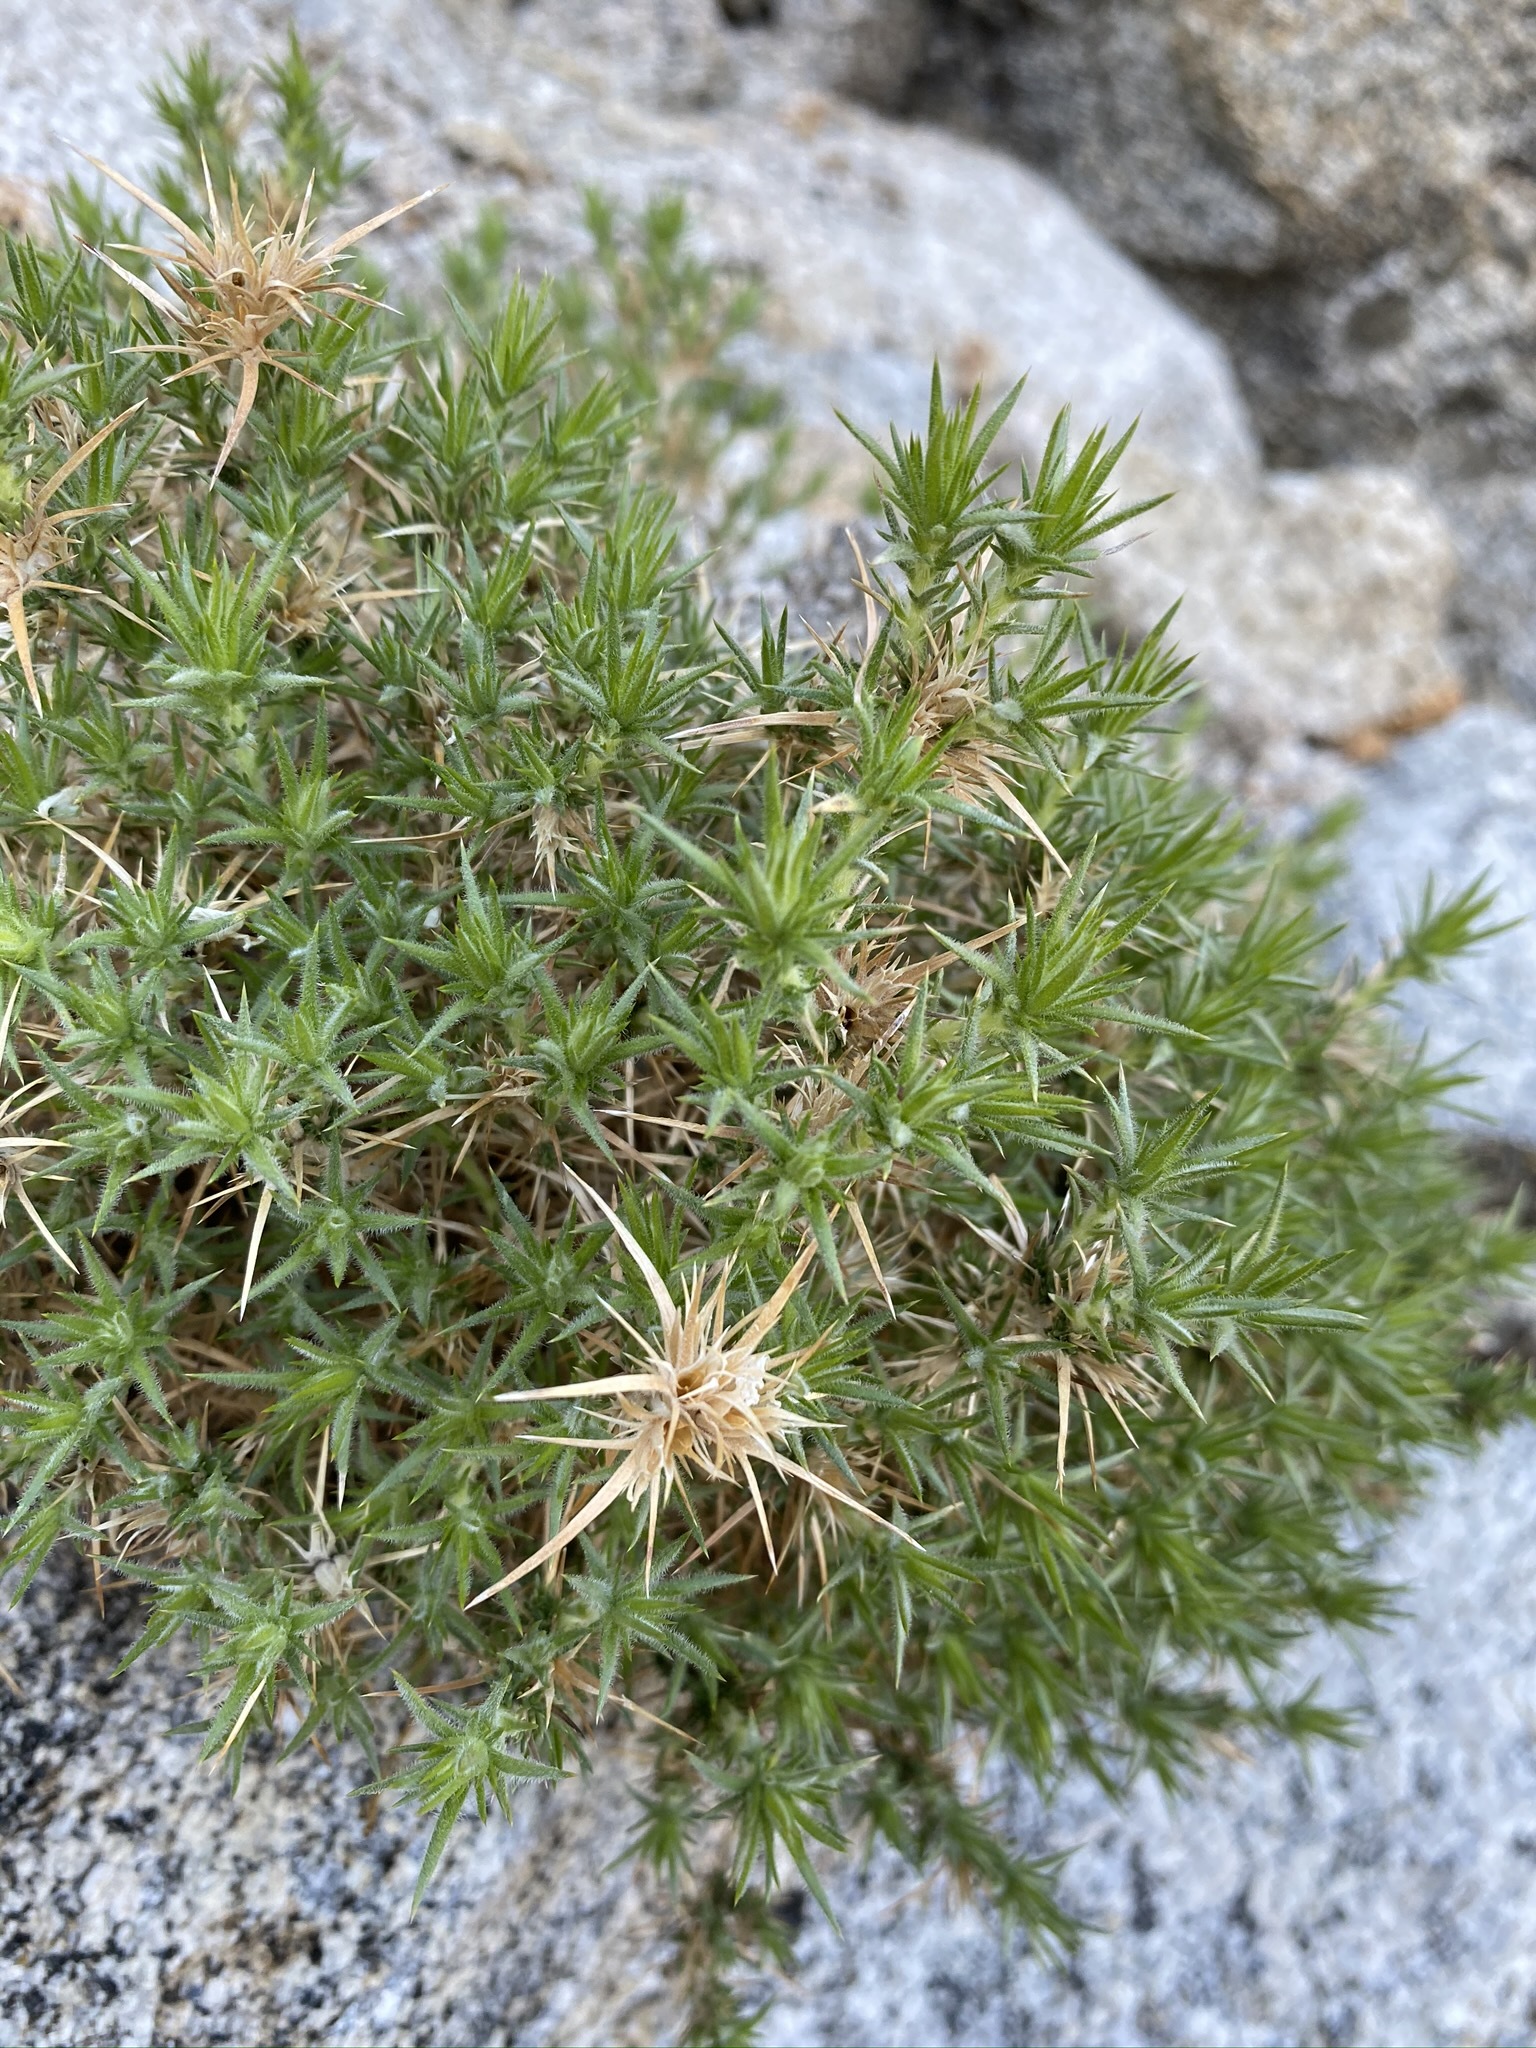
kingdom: Plantae
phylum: Tracheophyta
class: Magnoliopsida
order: Ericales
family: Polemoniaceae
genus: Linanthus
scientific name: Linanthus pungens
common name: Granite prickly phlox
